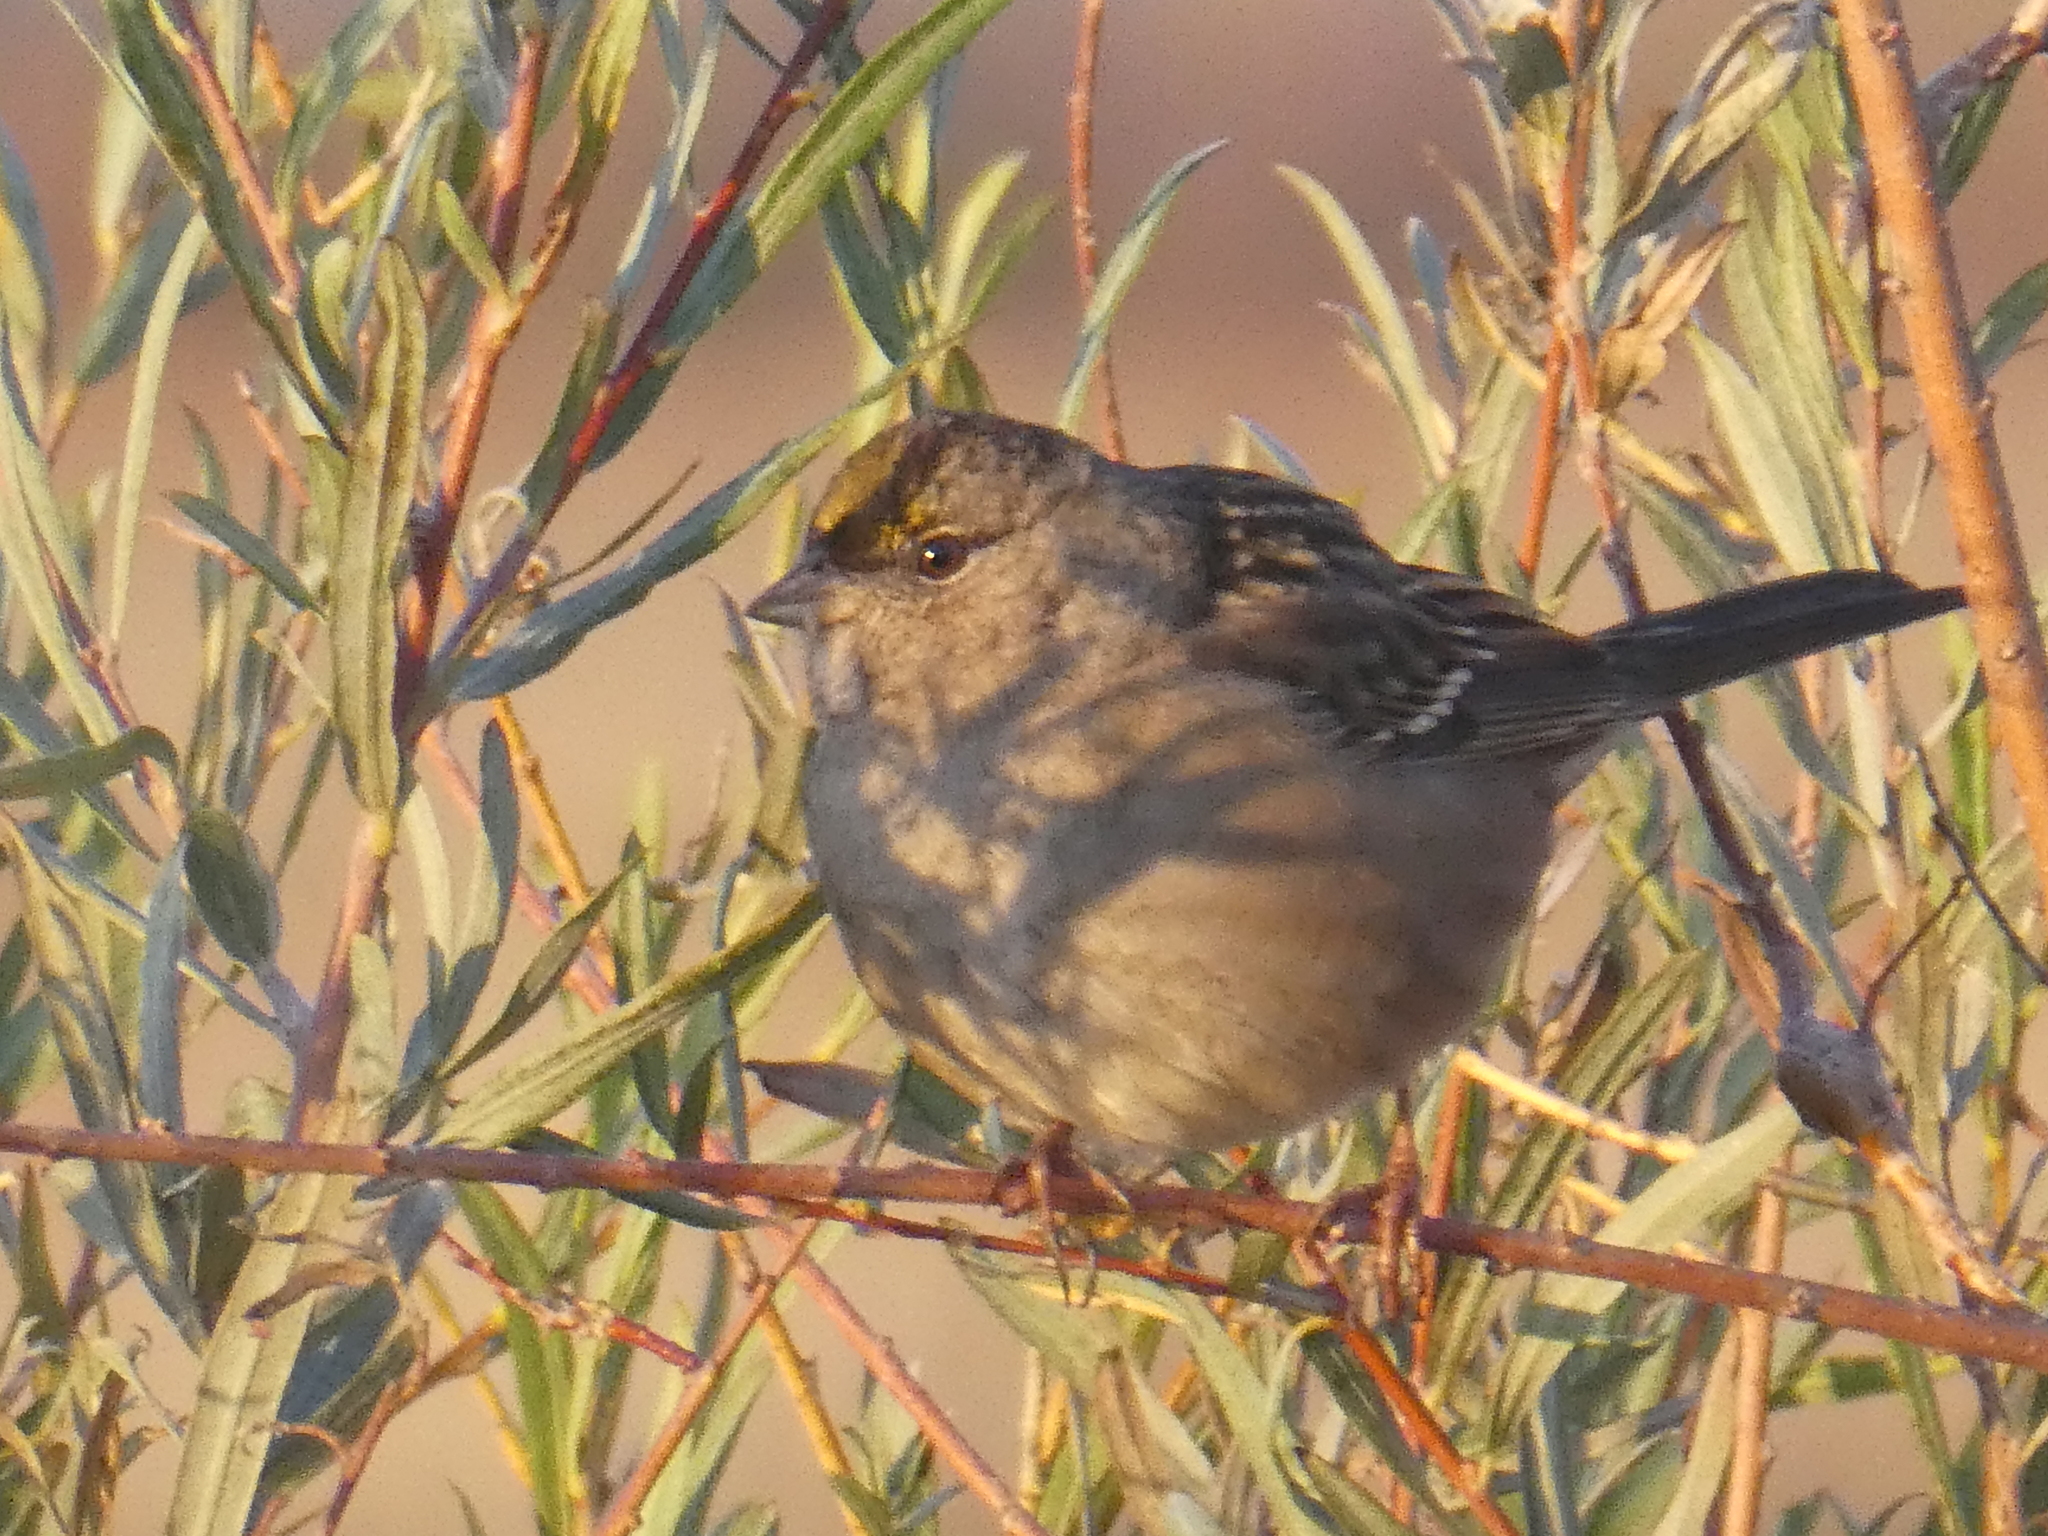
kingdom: Animalia
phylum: Chordata
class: Aves
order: Passeriformes
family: Passerellidae
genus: Zonotrichia
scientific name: Zonotrichia atricapilla
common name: Golden-crowned sparrow
